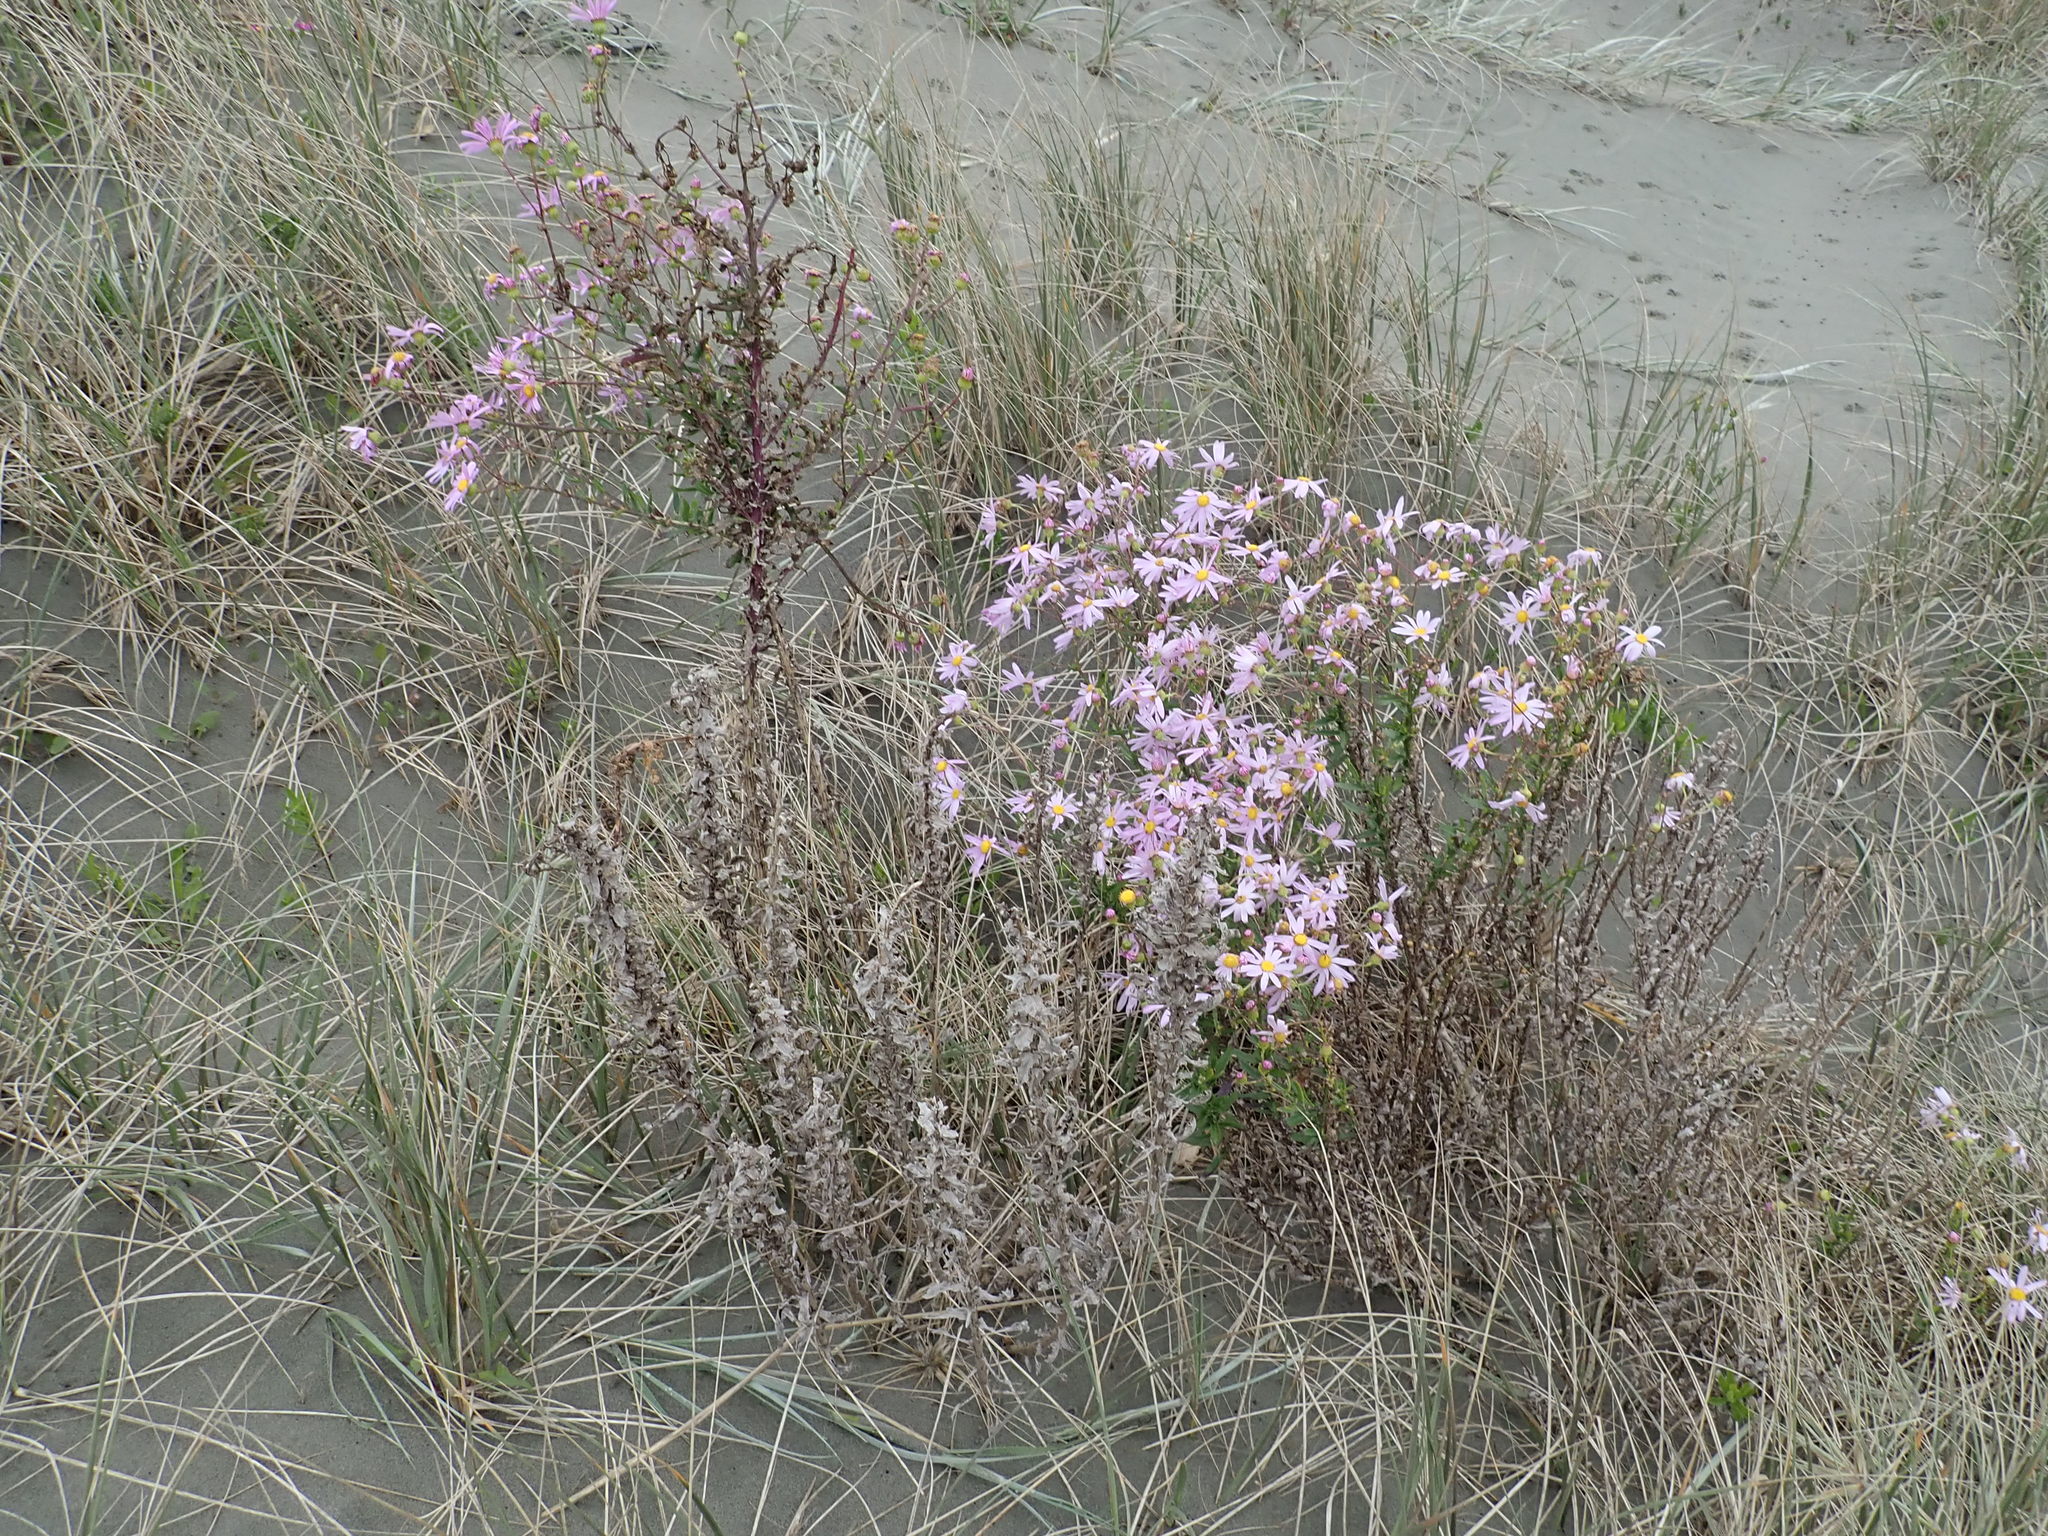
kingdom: Plantae
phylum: Tracheophyta
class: Magnoliopsida
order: Asterales
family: Asteraceae
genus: Senecio
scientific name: Senecio glastifolius
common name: Woad-leaved ragwort
